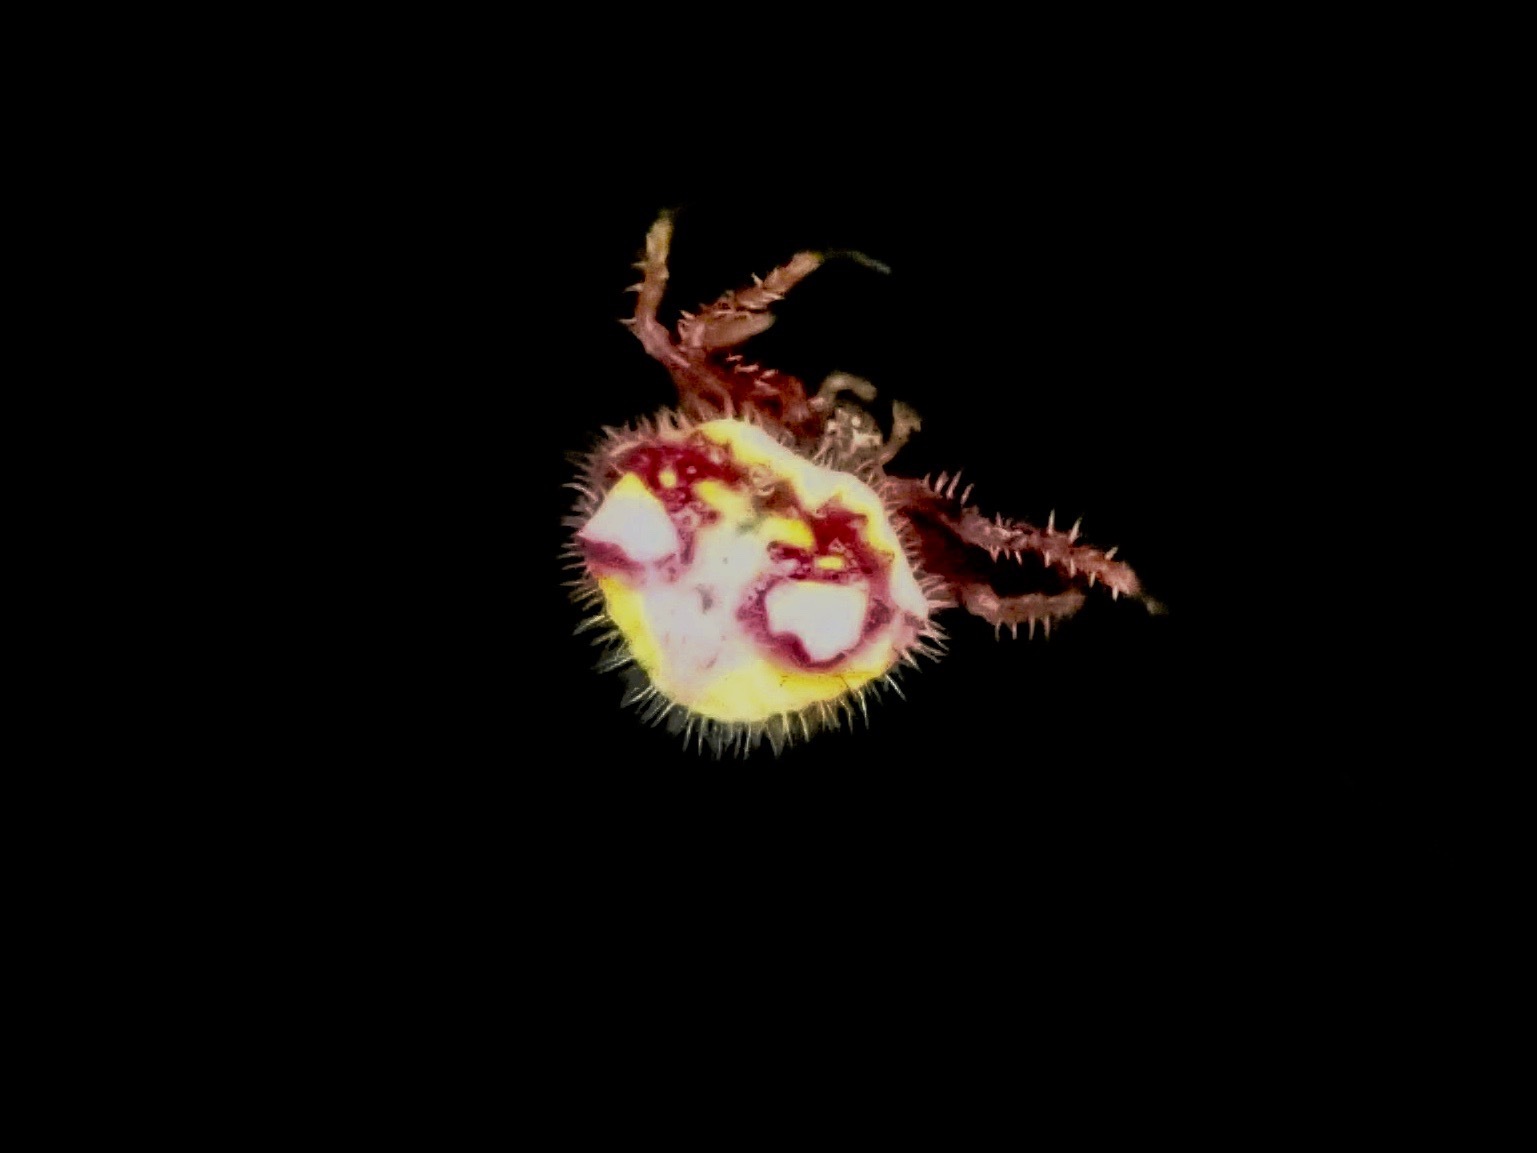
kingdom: Animalia
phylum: Arthropoda
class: Arachnida
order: Araneae
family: Araneidae
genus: Poecilopachys
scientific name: Poecilopachys australasia
